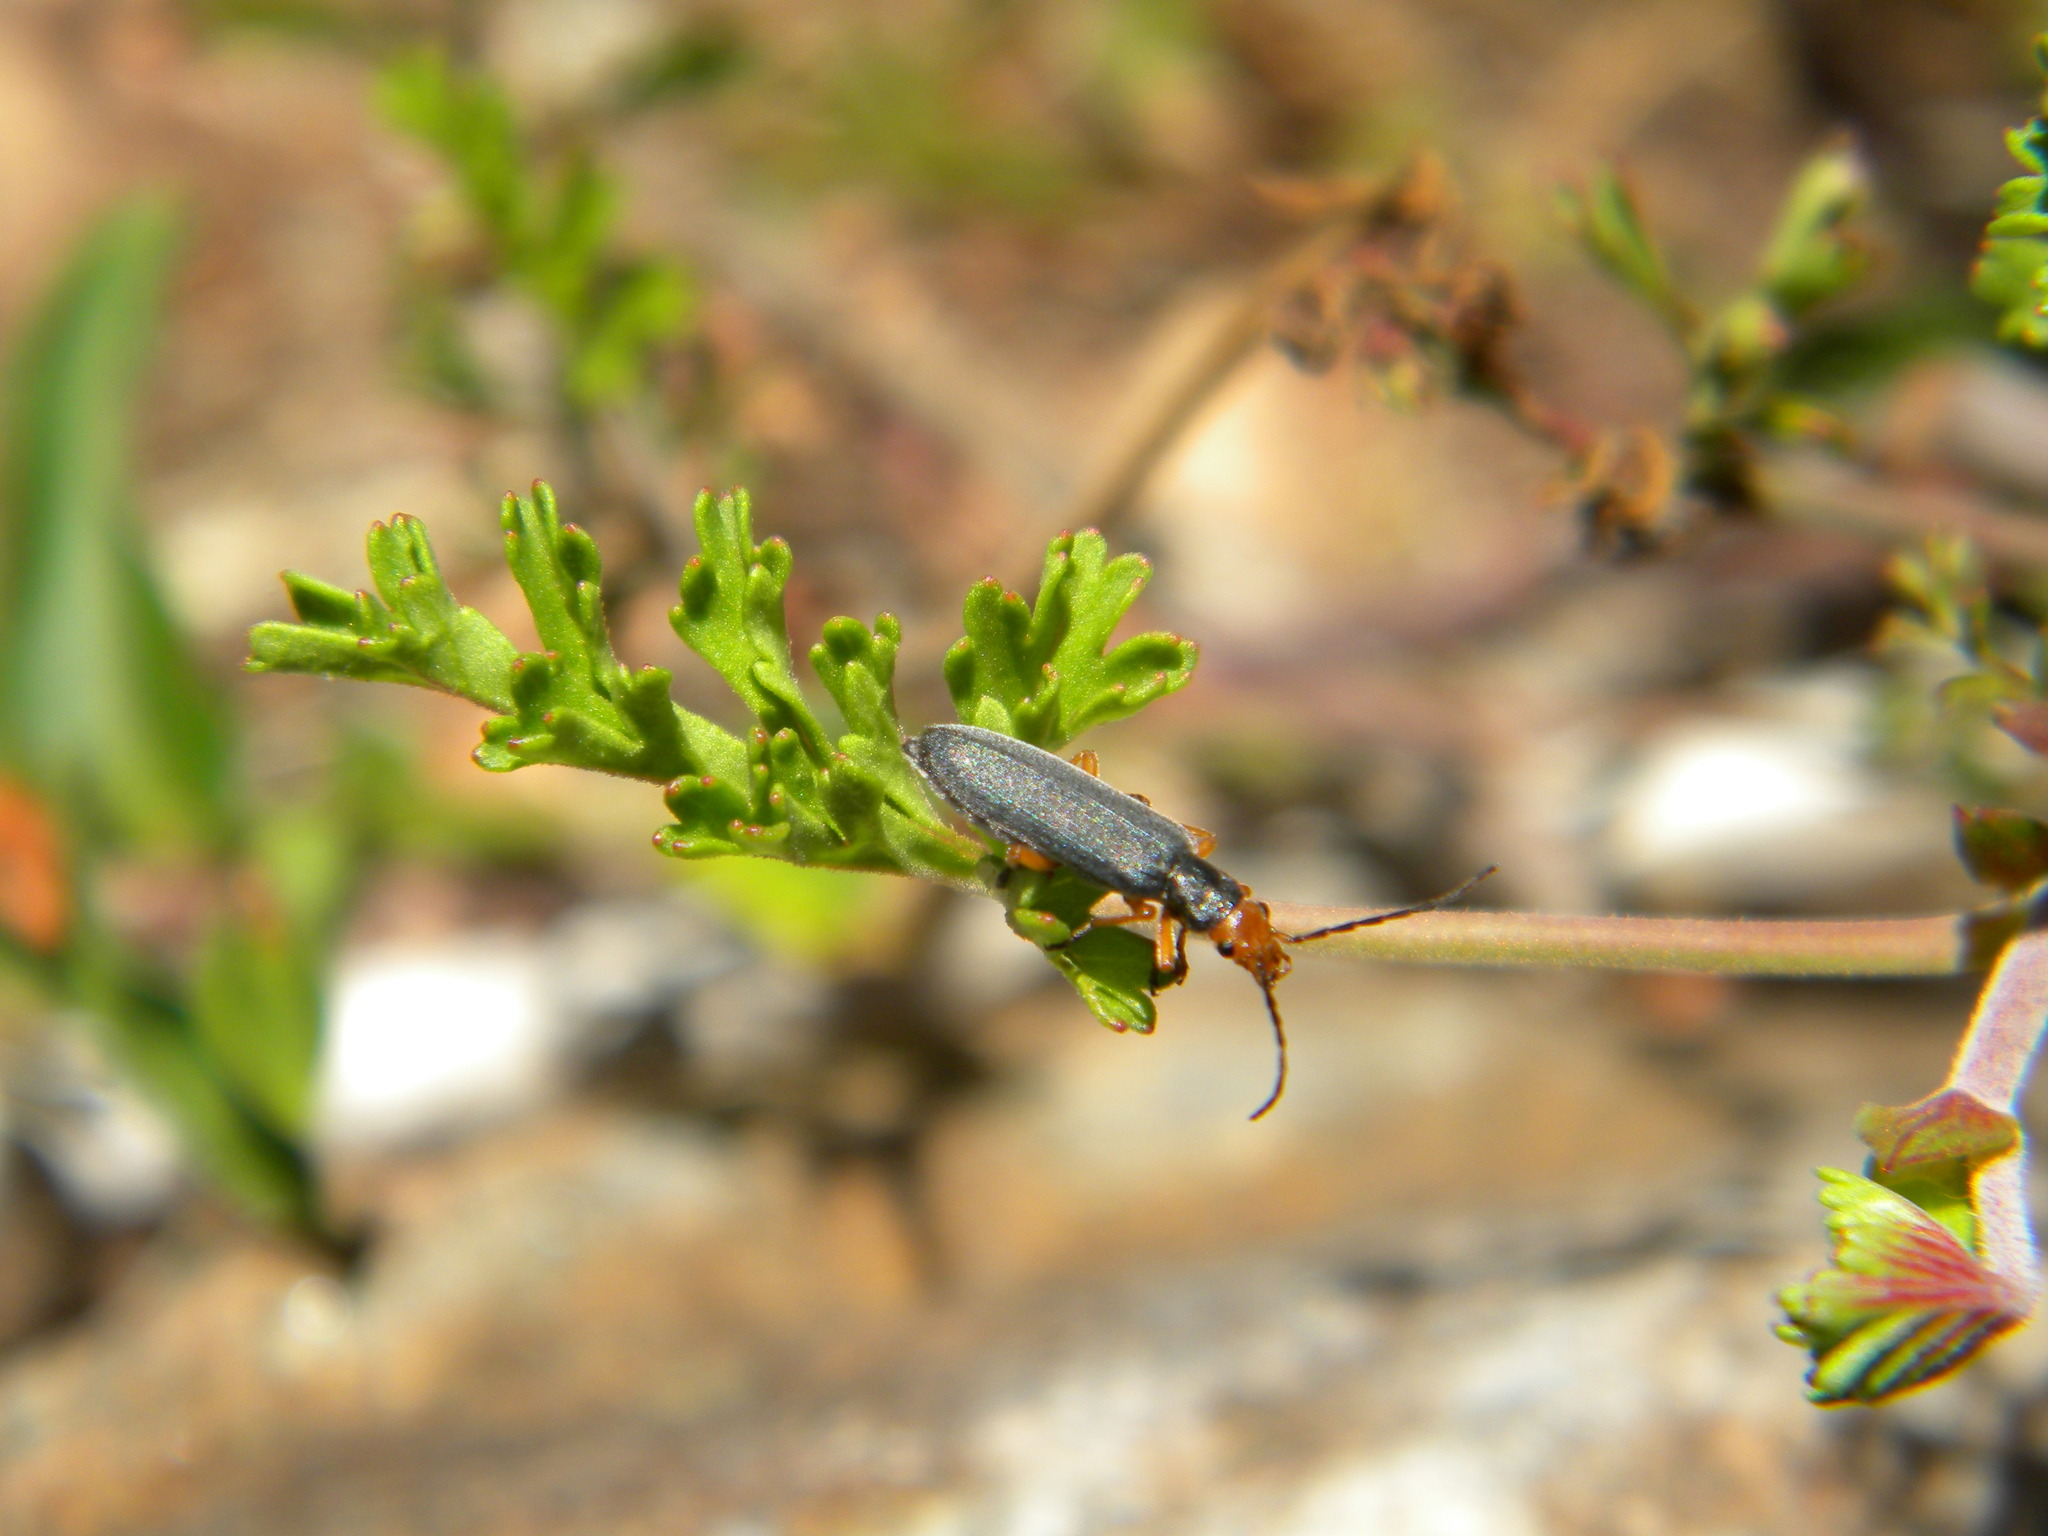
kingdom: Animalia
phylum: Arthropoda
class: Insecta
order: Coleoptera
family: Oedemeridae
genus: Melananthia
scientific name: Melananthia
